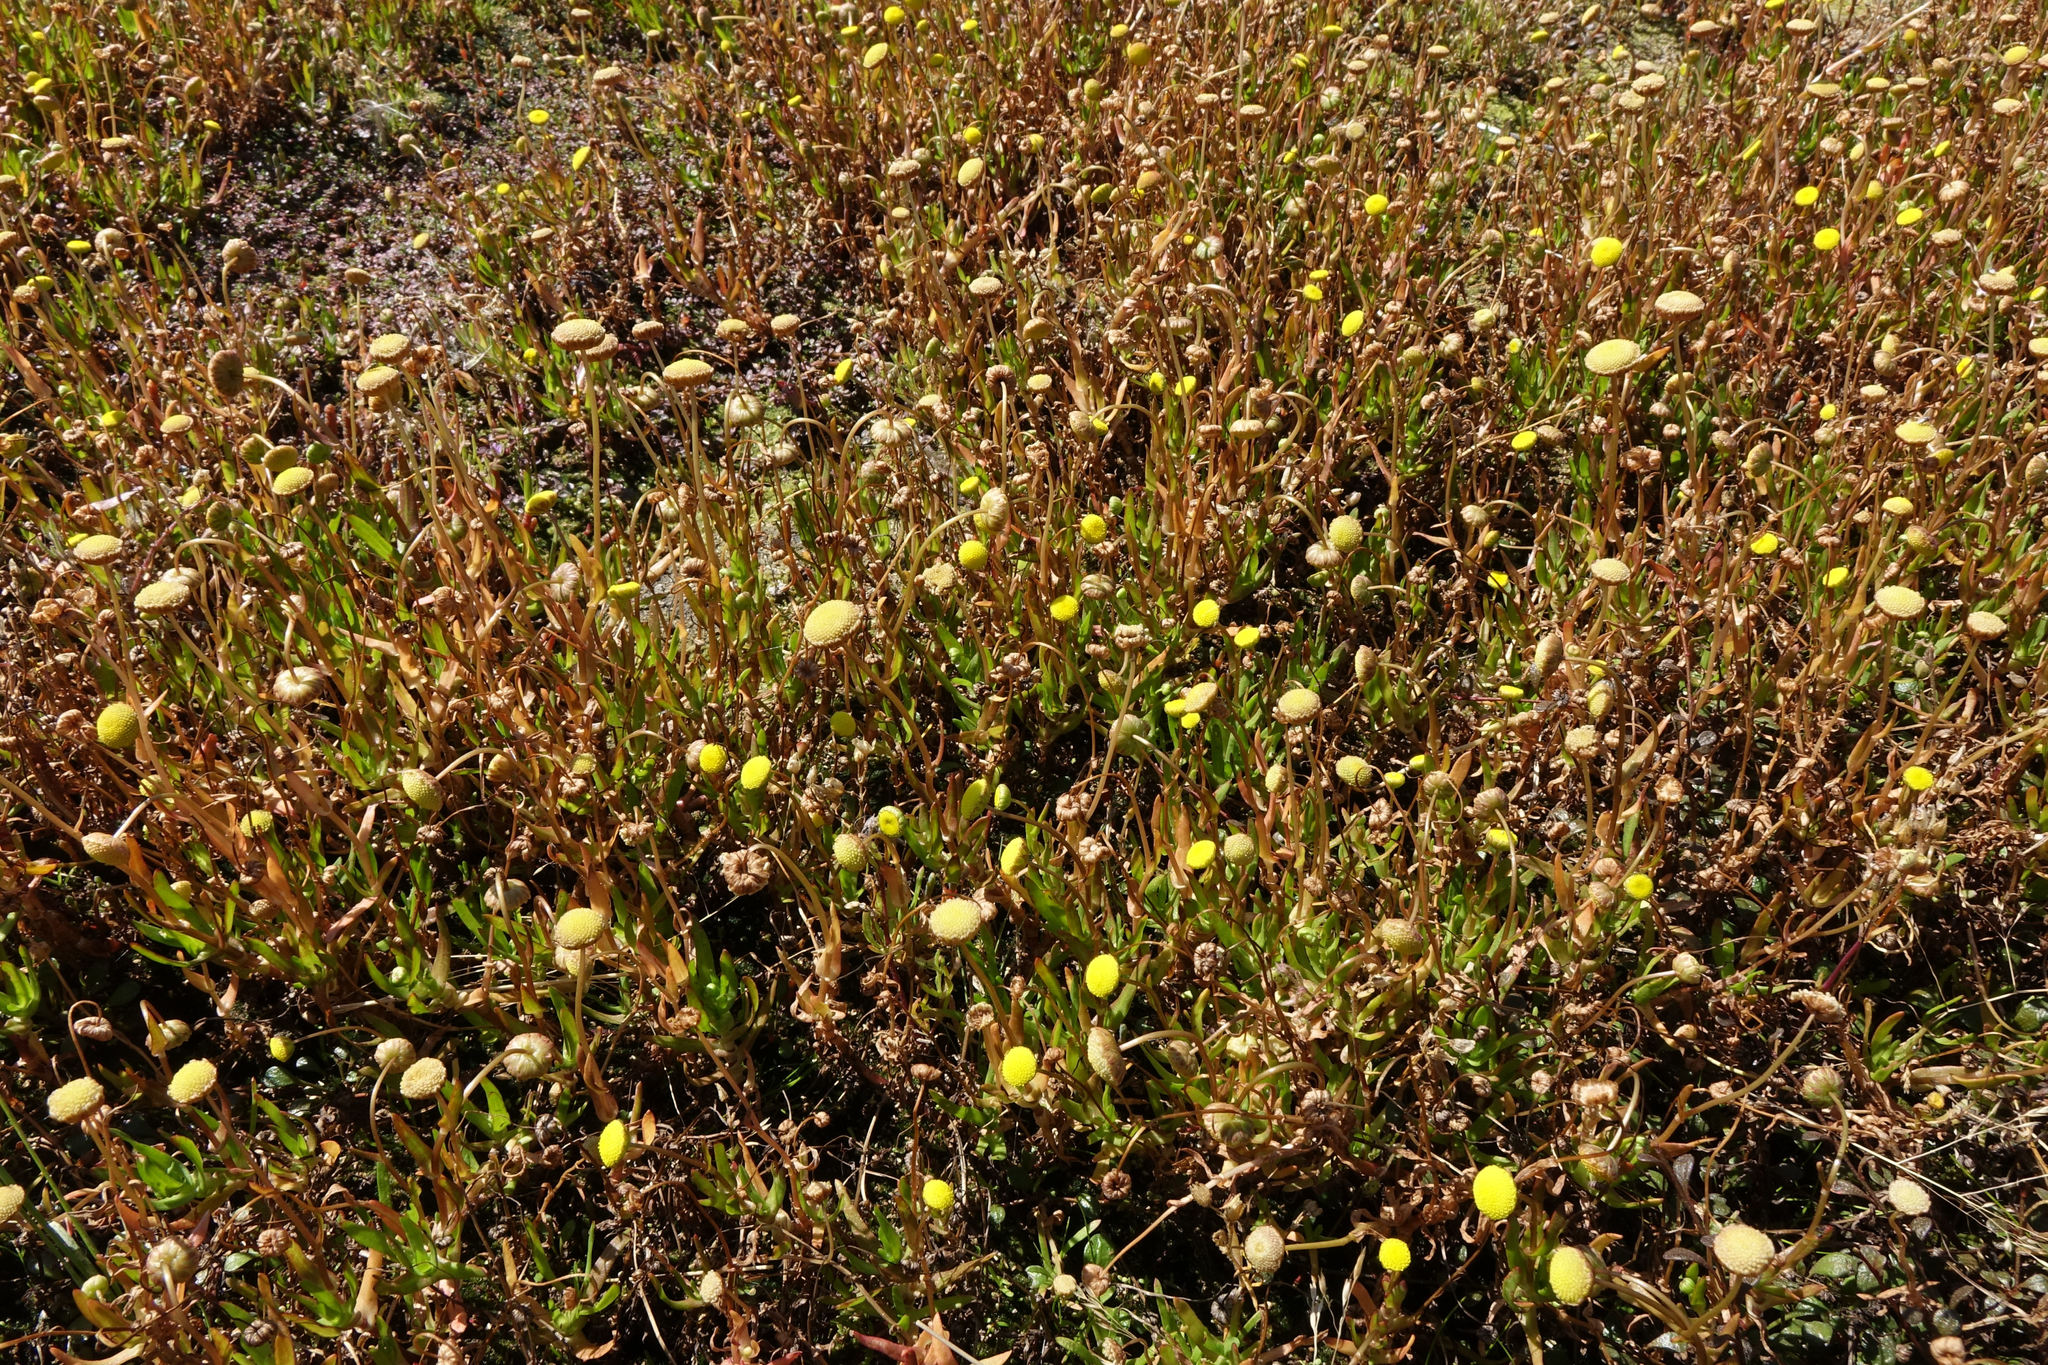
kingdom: Plantae
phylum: Tracheophyta
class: Magnoliopsida
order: Asterales
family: Asteraceae
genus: Cotula
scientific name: Cotula coronopifolia
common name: Buttonweed
